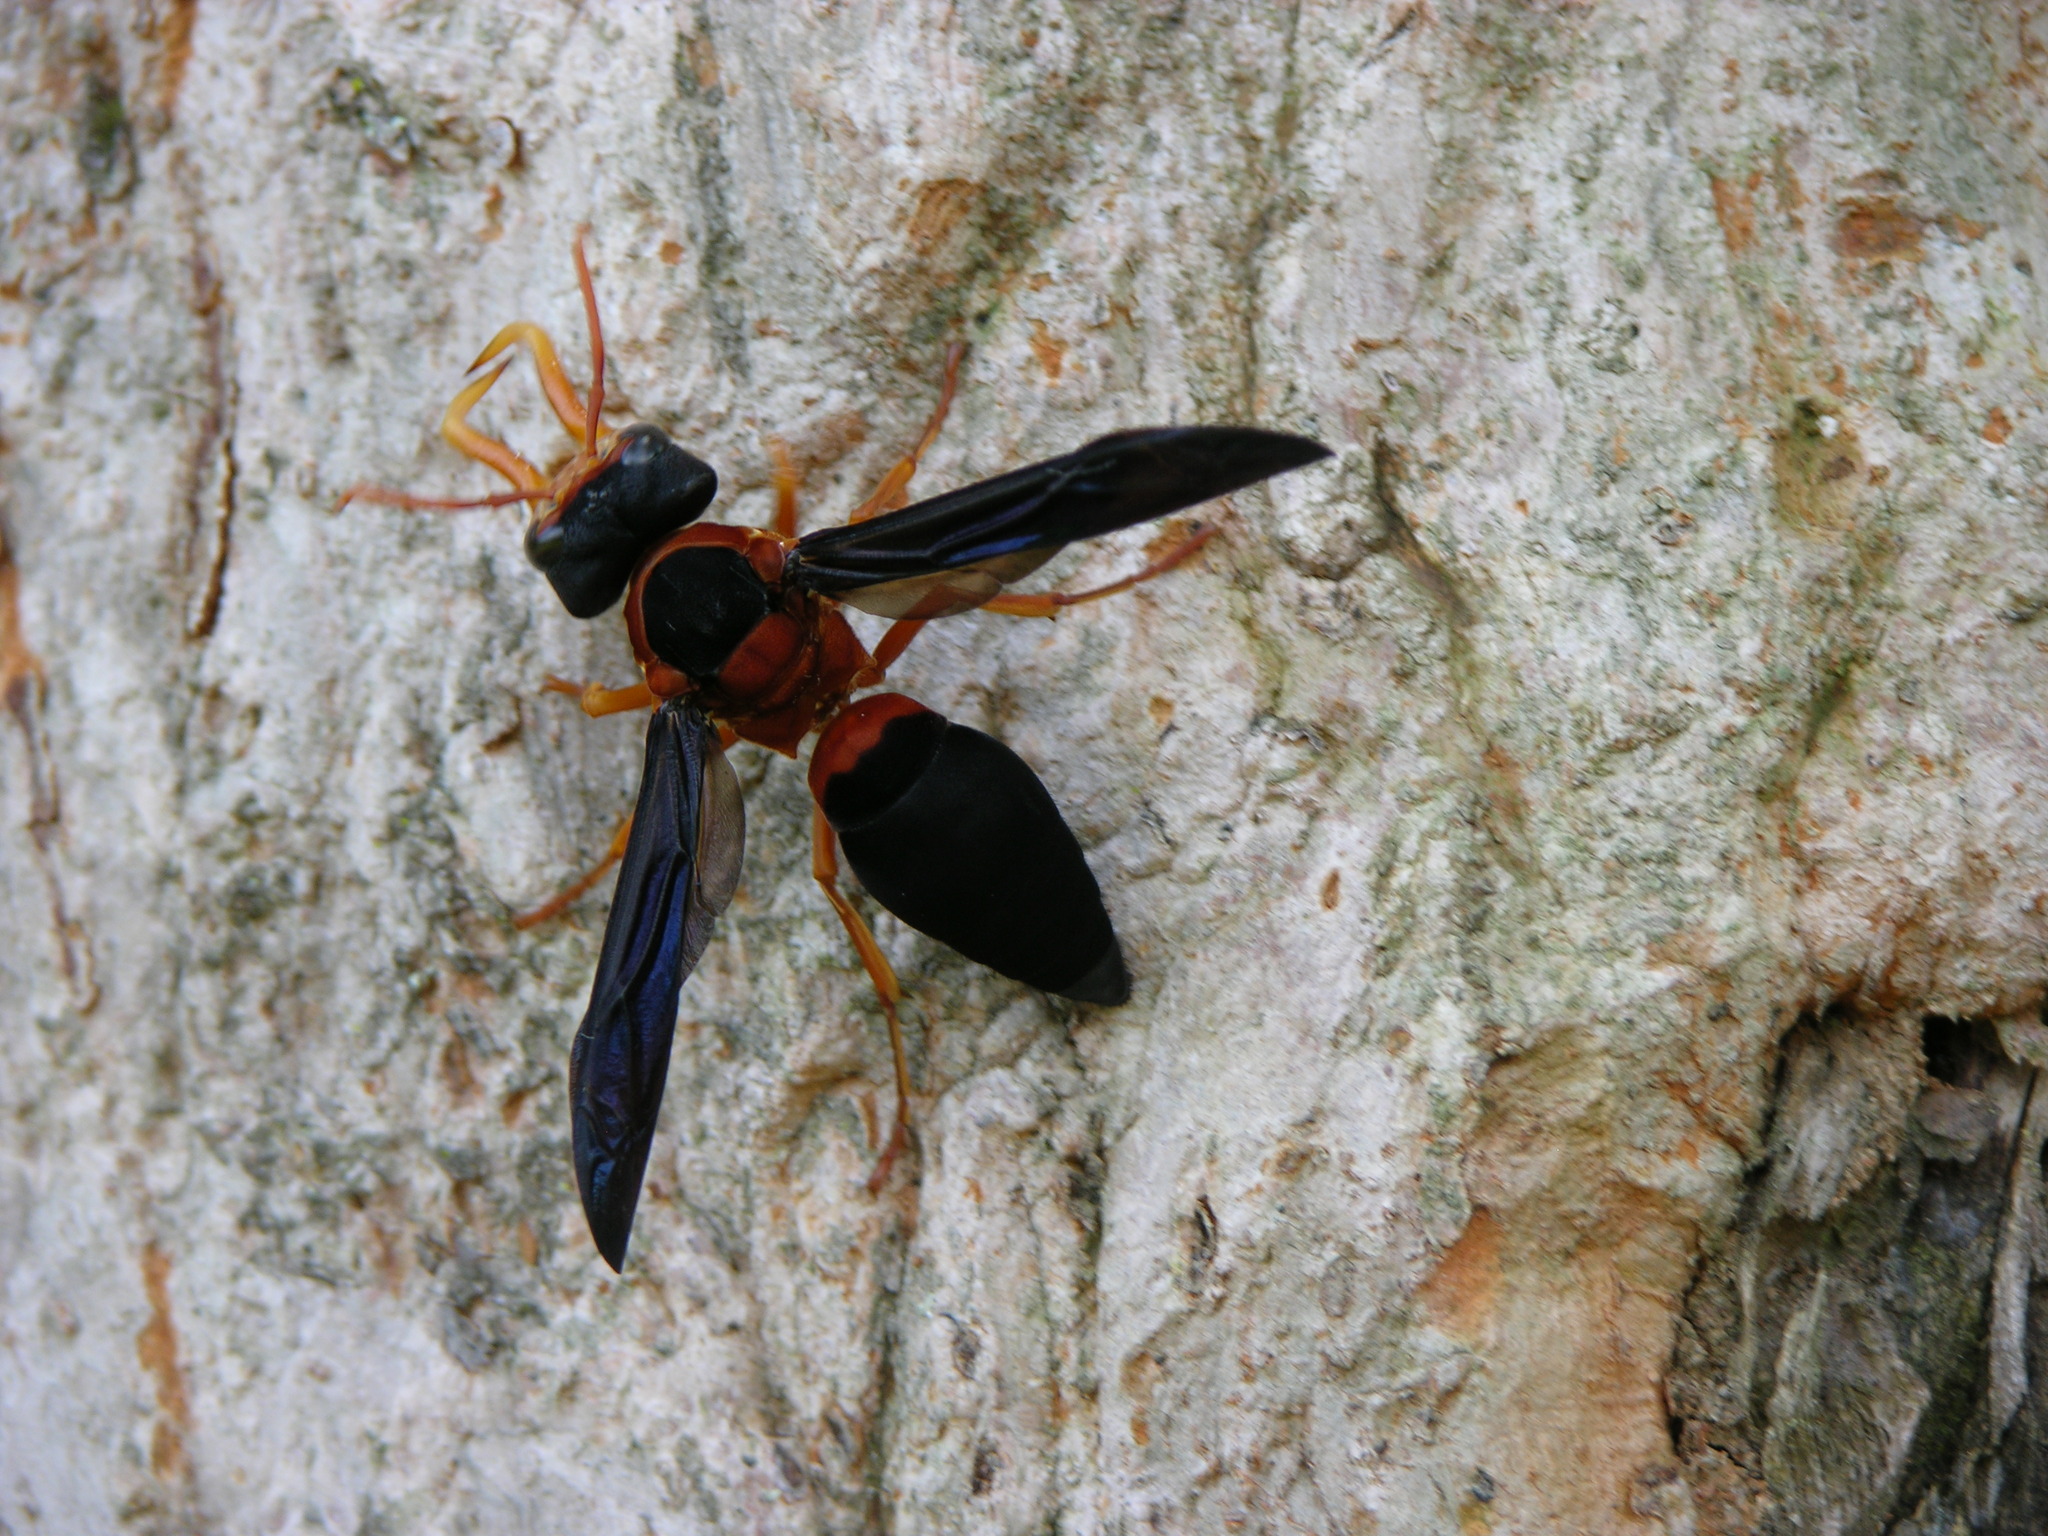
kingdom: Animalia
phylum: Arthropoda
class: Insecta
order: Hymenoptera
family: Vespidae
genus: Synagris
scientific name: Synagris cornuta
